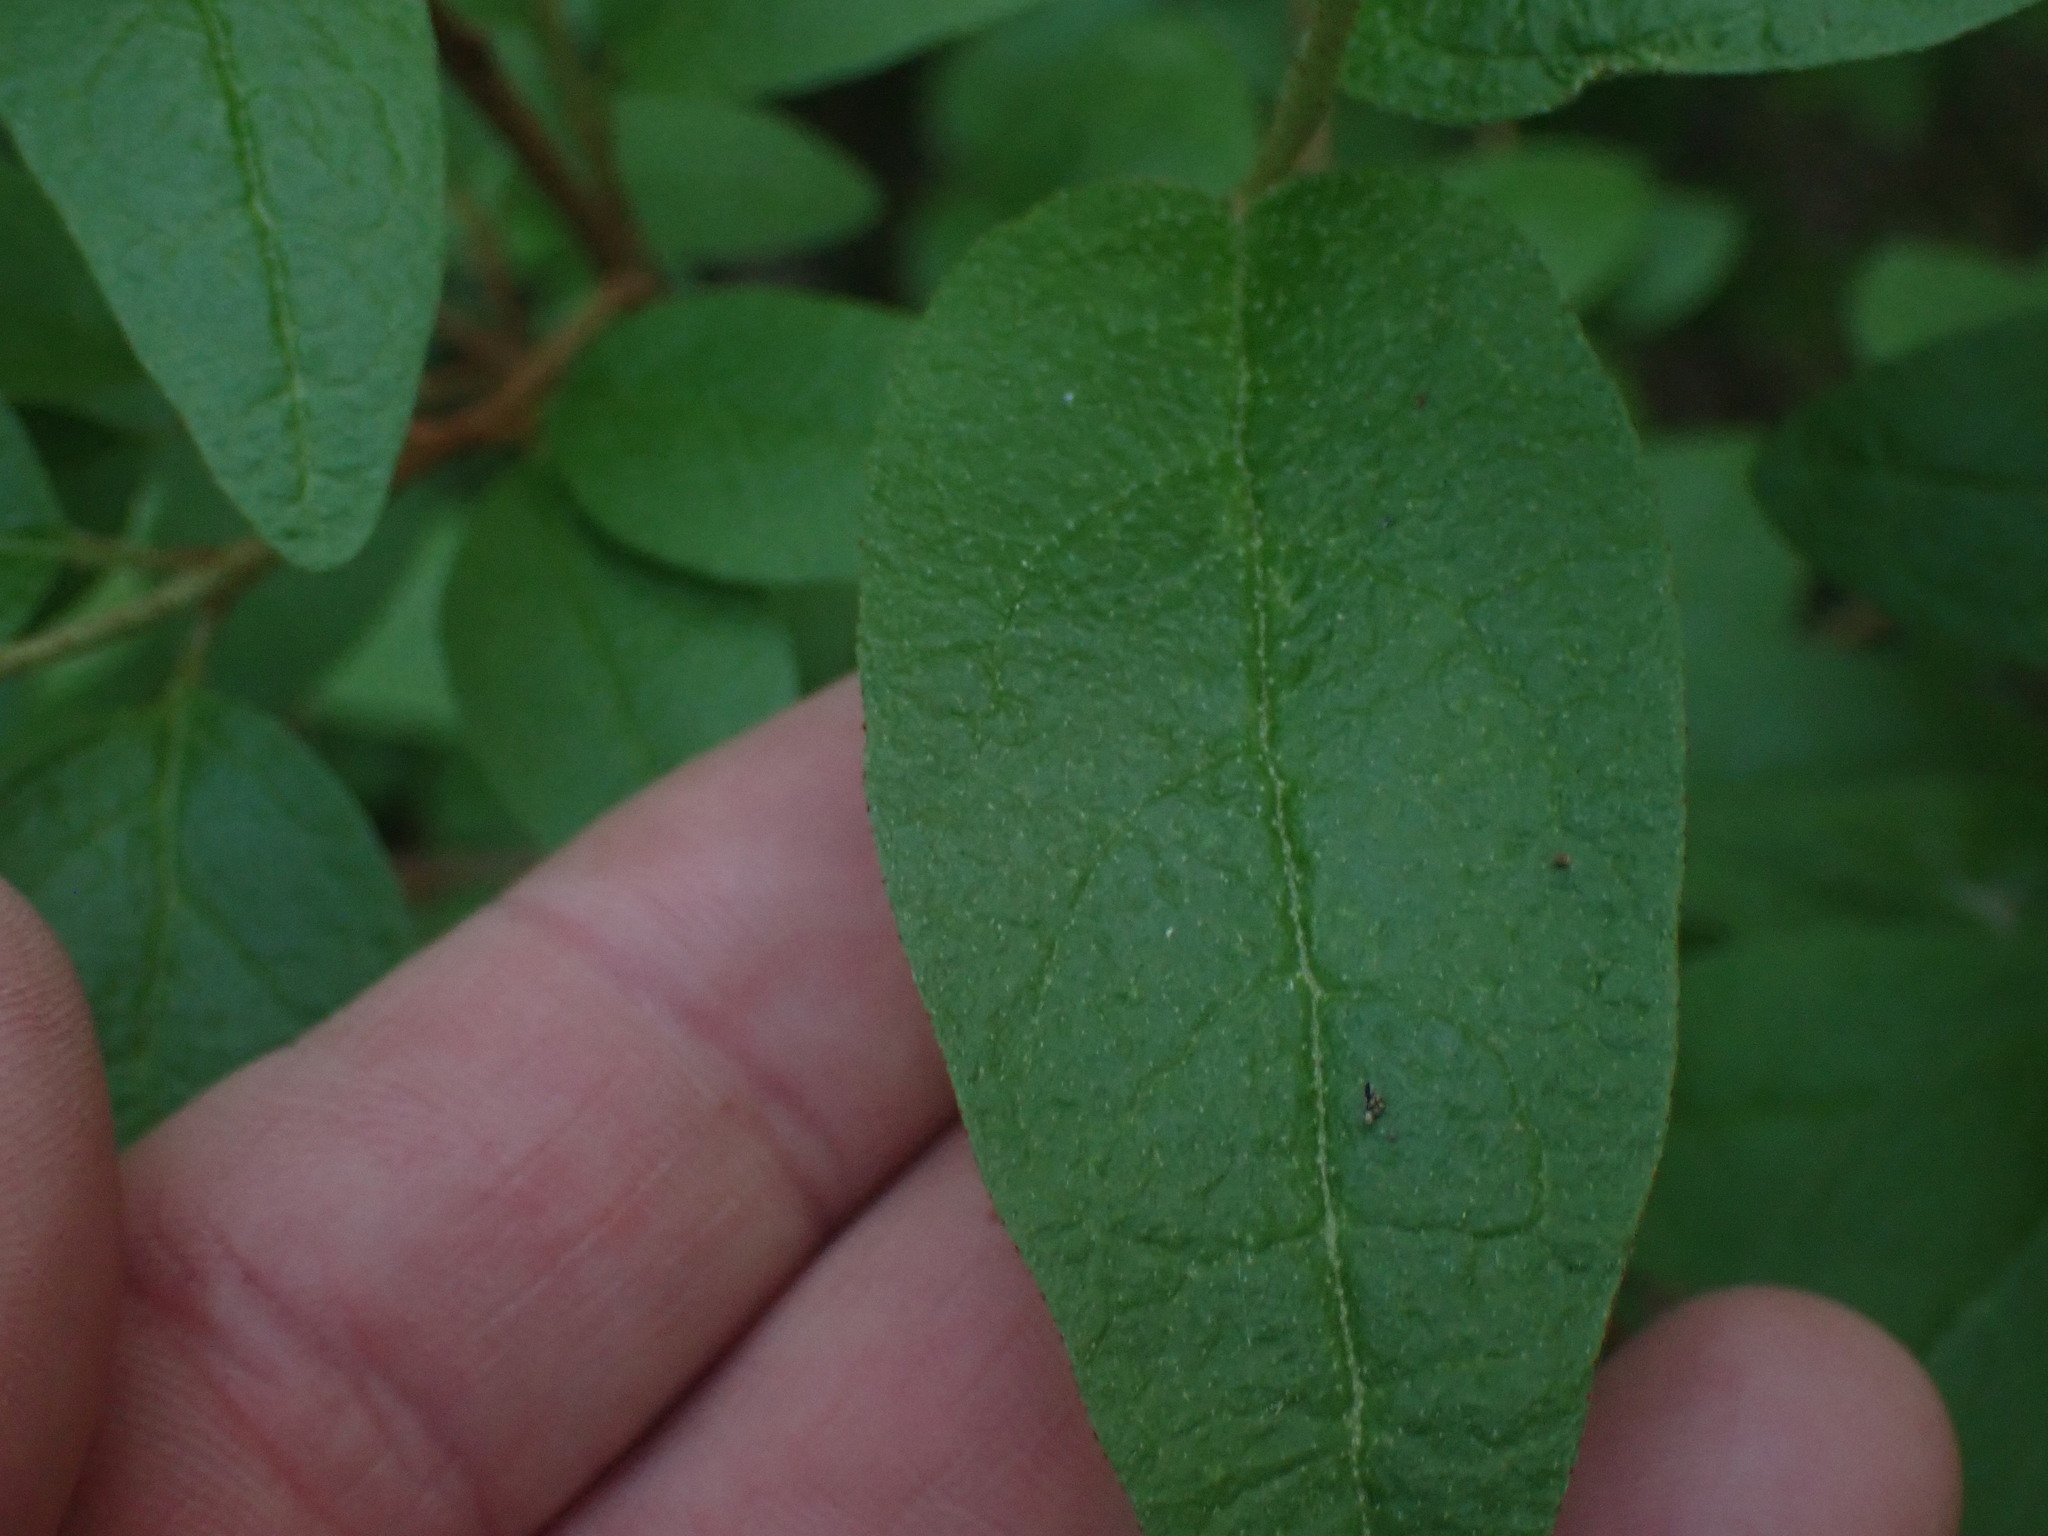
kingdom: Plantae
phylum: Tracheophyta
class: Magnoliopsida
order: Rosales
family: Elaeagnaceae
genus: Shepherdia
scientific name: Shepherdia canadensis
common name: Soapberry
